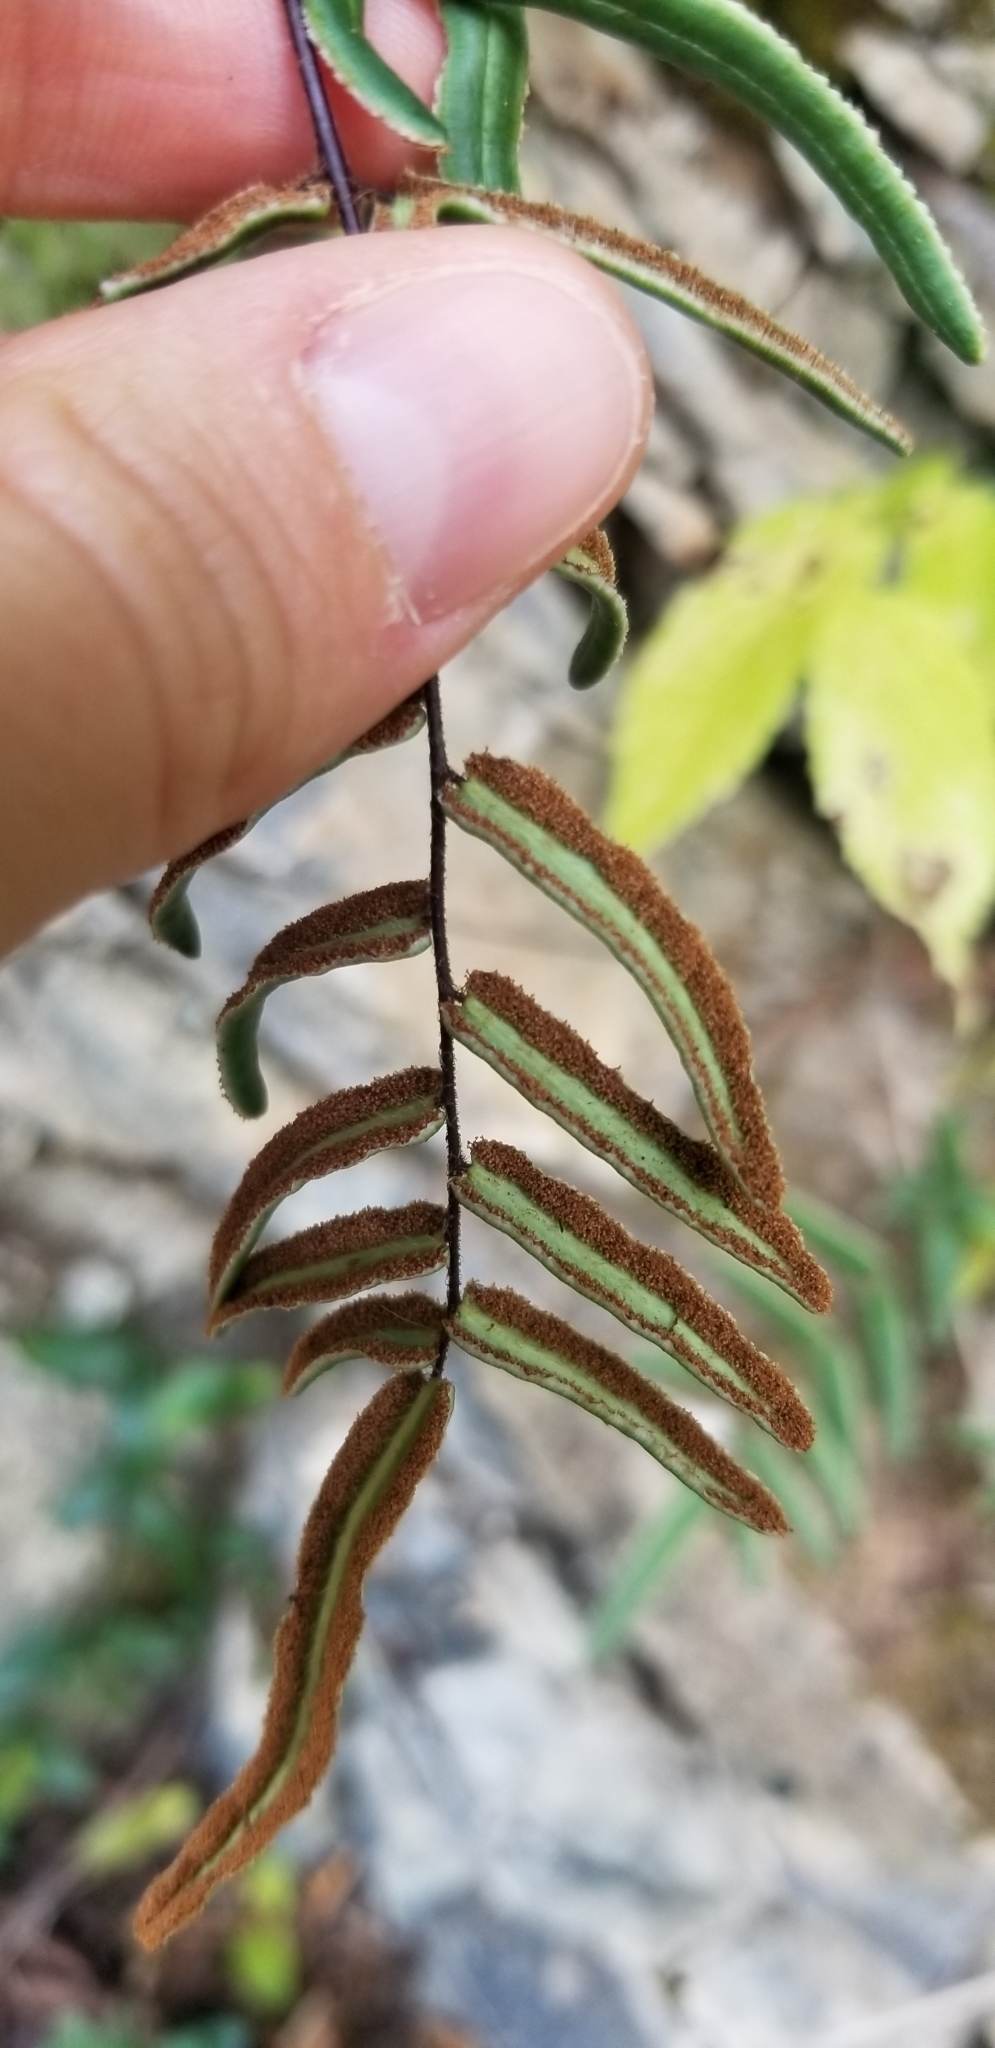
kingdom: Plantae
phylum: Tracheophyta
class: Polypodiopsida
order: Polypodiales
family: Pteridaceae
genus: Pellaea
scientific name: Pellaea atropurpurea
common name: Hairy cliffbrake
